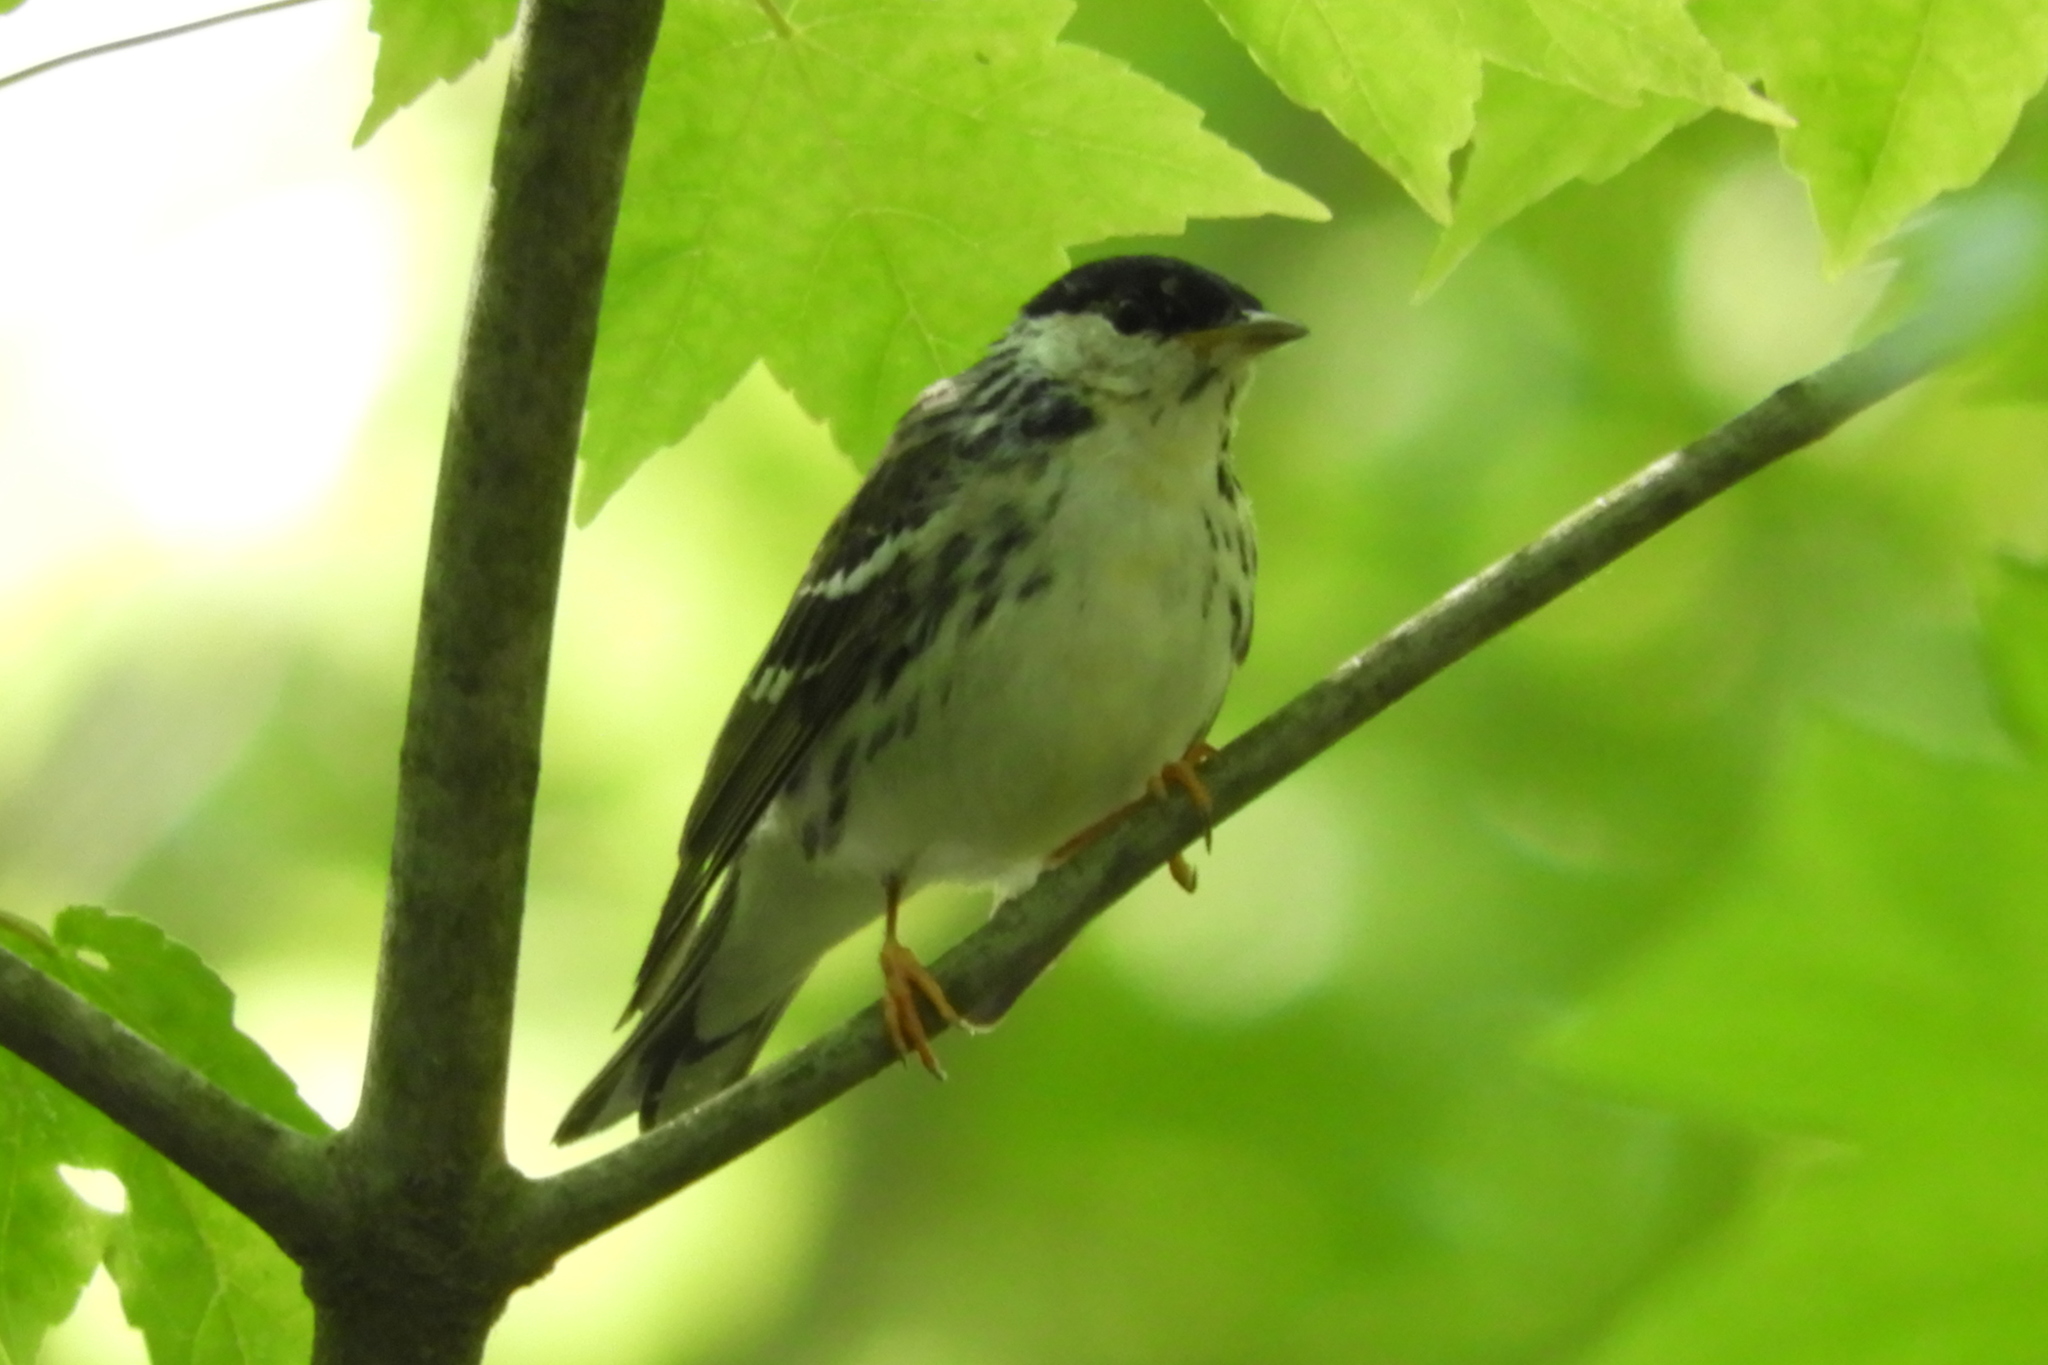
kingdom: Animalia
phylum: Chordata
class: Aves
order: Passeriformes
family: Parulidae
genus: Setophaga
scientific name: Setophaga striata
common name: Blackpoll warbler
